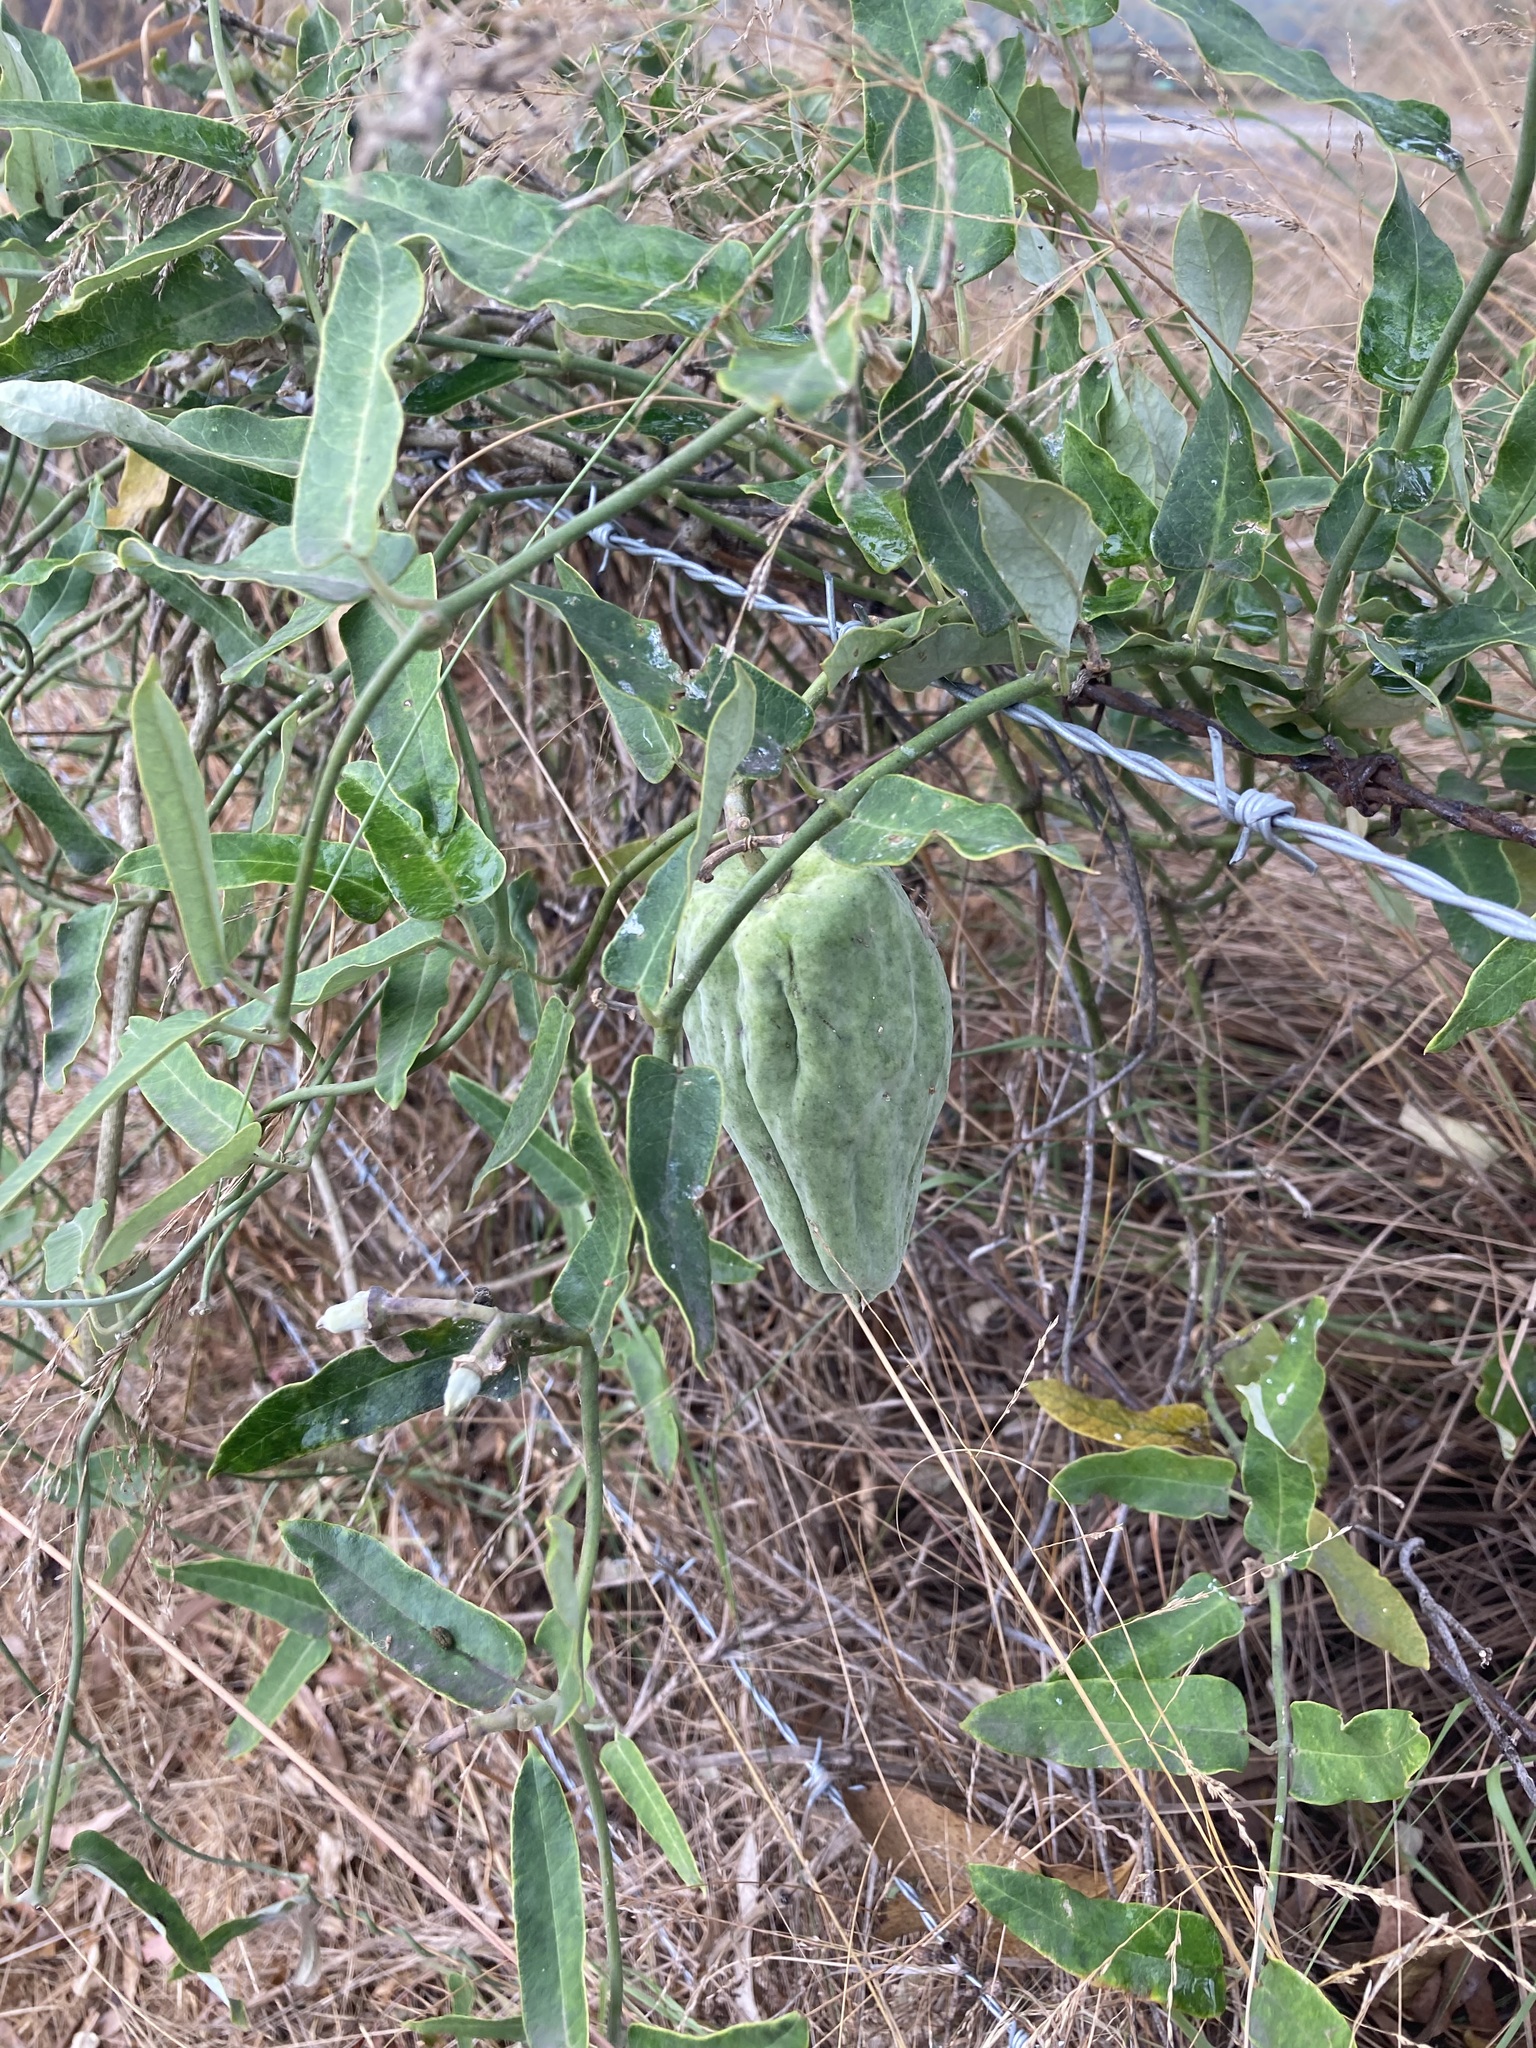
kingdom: Plantae
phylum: Tracheophyta
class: Magnoliopsida
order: Gentianales
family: Apocynaceae
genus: Araujia
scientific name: Araujia sericifera
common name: White bladderflower
